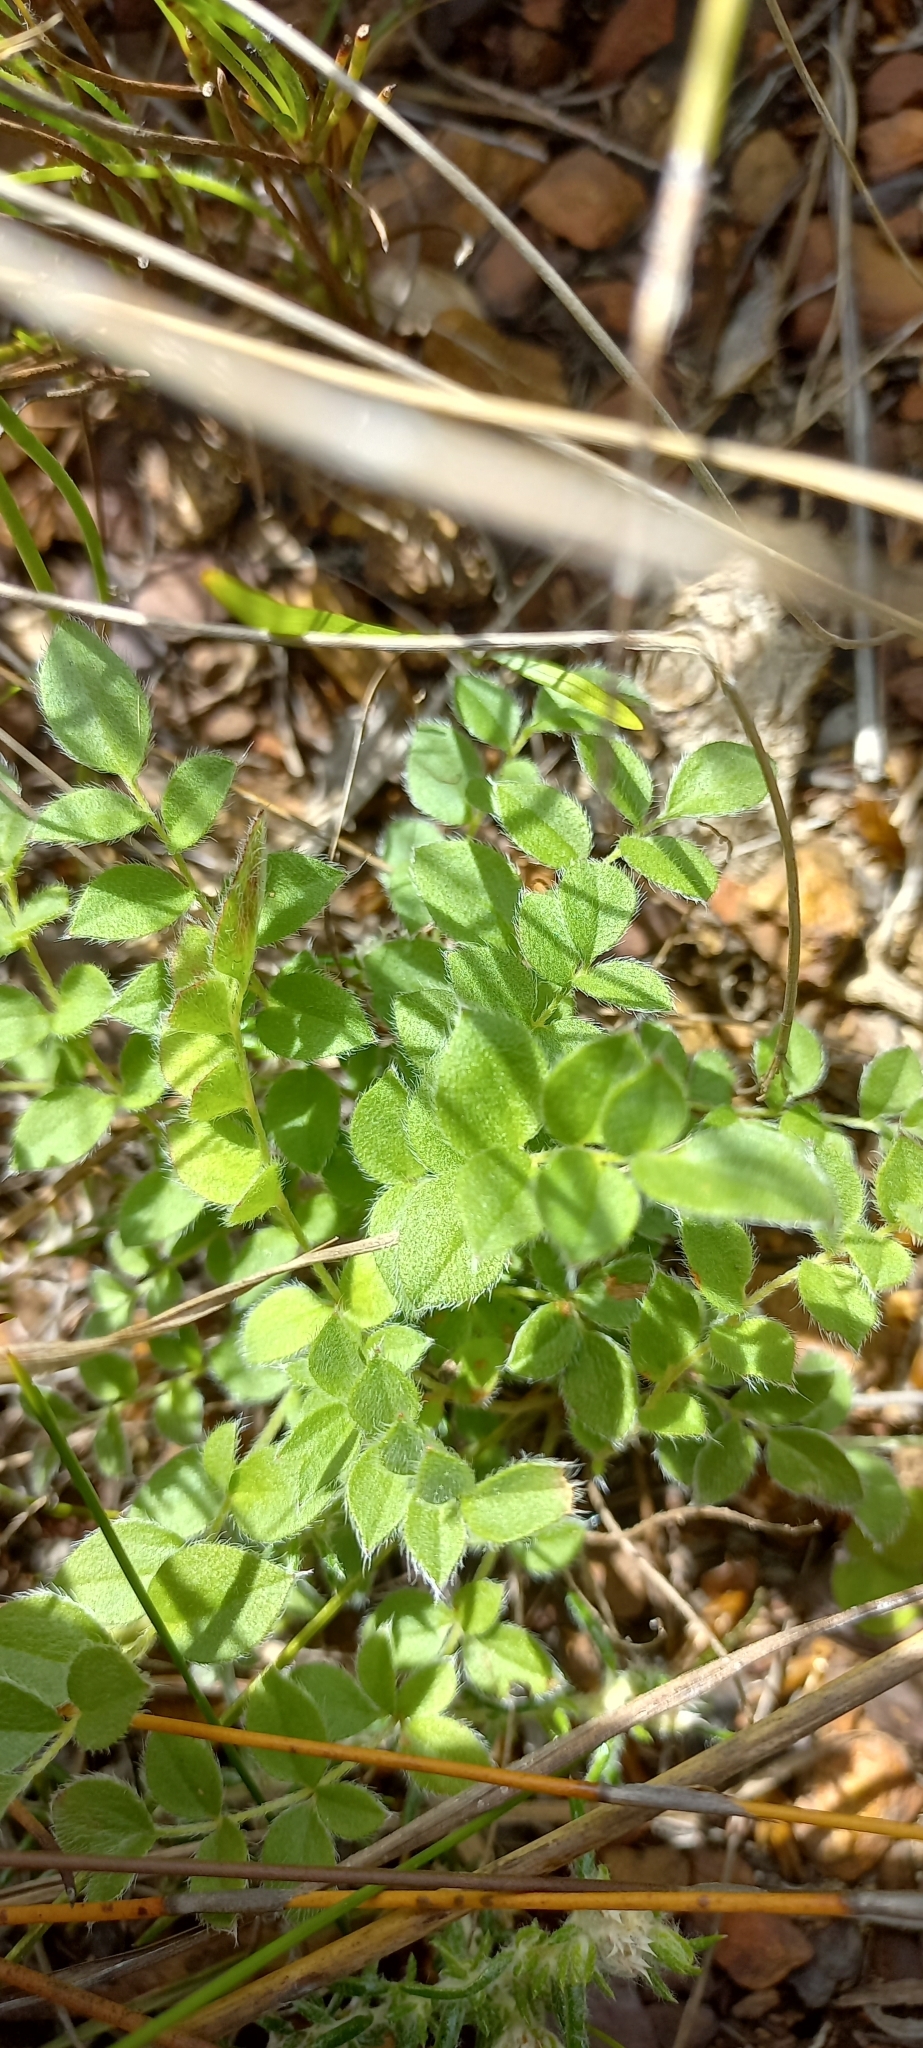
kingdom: Plantae
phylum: Tracheophyta
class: Magnoliopsida
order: Geraniales
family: Geraniaceae
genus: Pelargonium
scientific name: Pelargonium pinnatum
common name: Pinnated pelargonium
